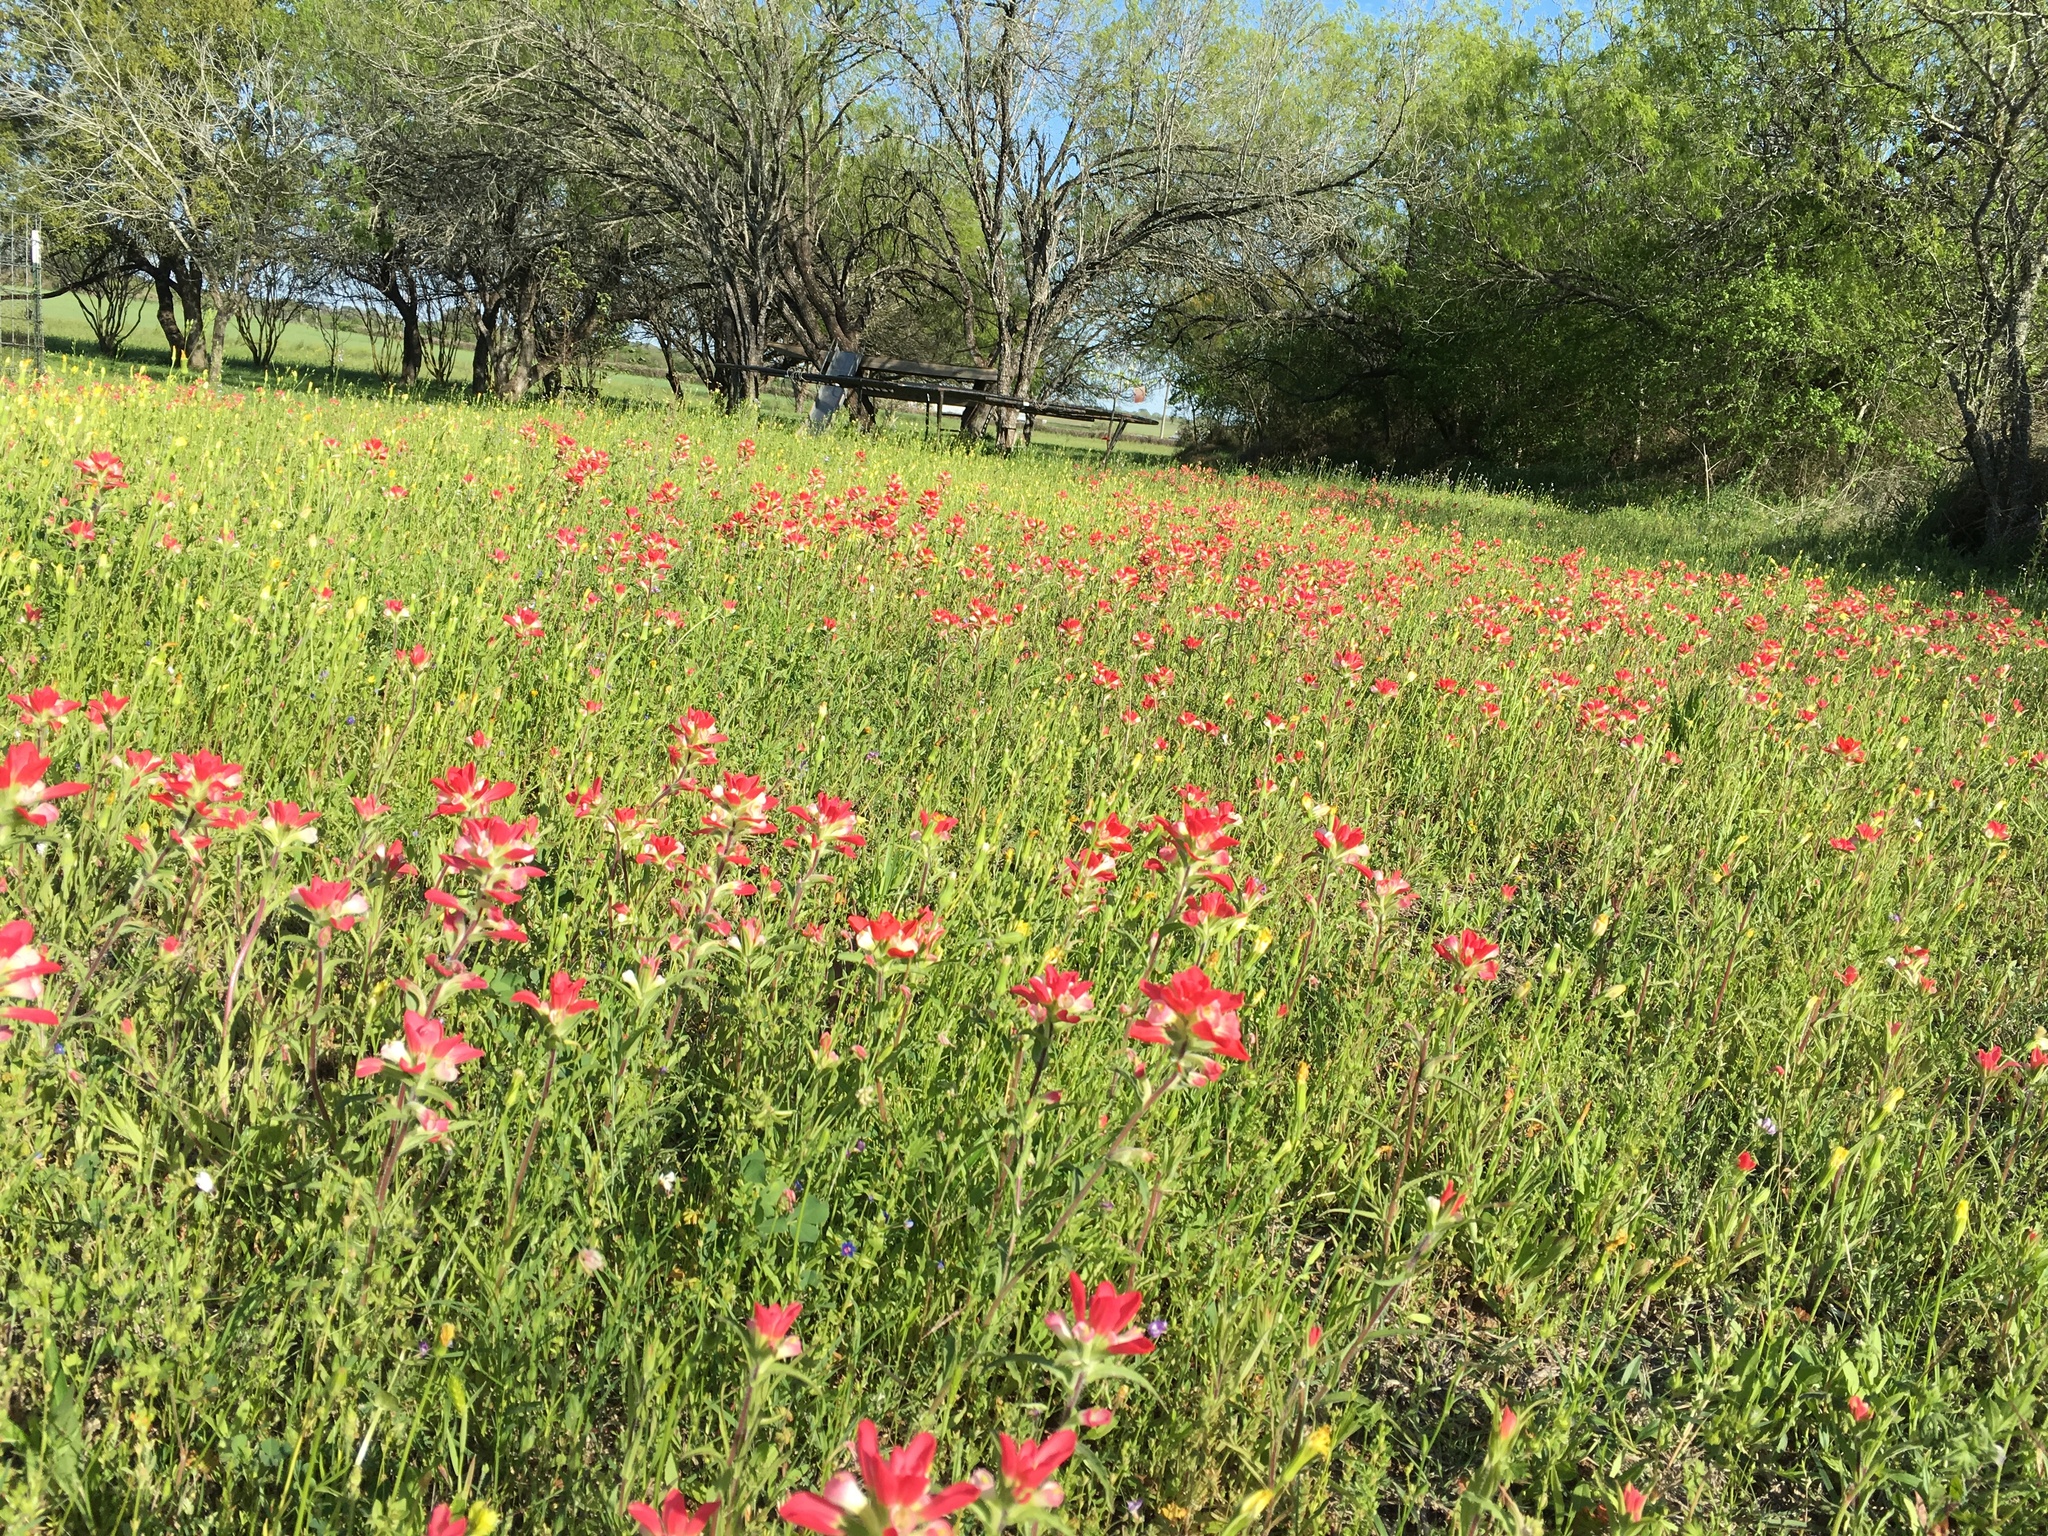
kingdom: Plantae
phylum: Tracheophyta
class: Magnoliopsida
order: Lamiales
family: Orobanchaceae
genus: Castilleja
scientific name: Castilleja indivisa
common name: Texas paintbrush
